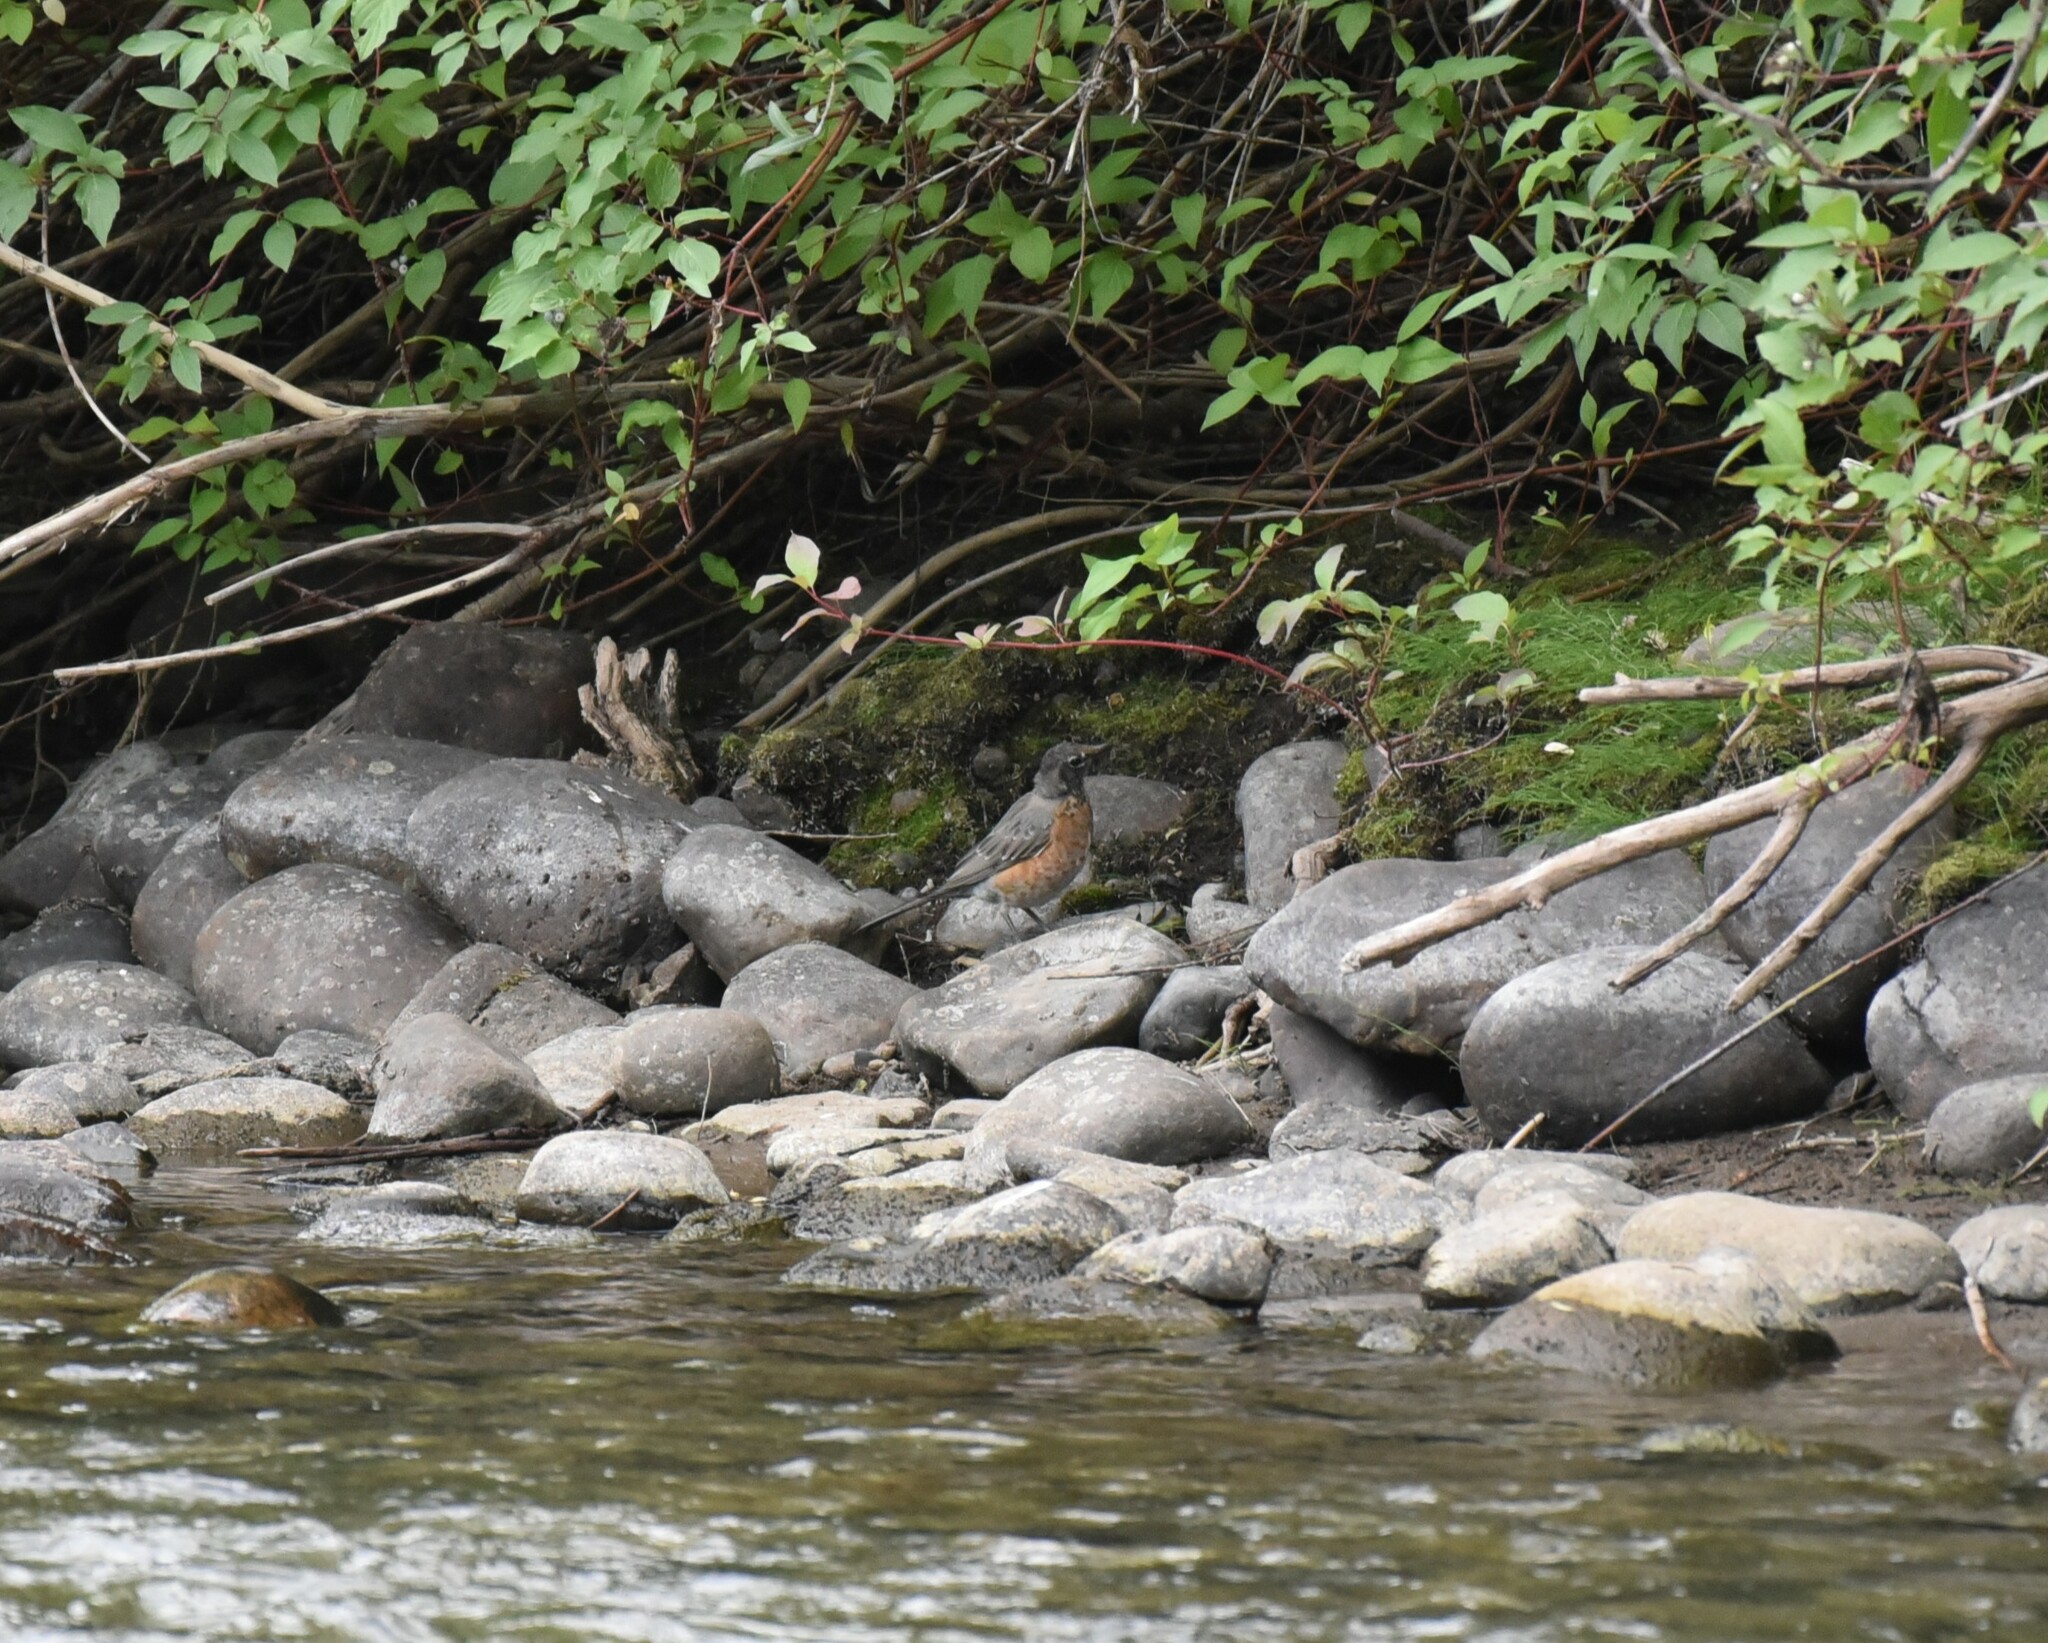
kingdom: Animalia
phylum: Chordata
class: Aves
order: Passeriformes
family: Turdidae
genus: Turdus
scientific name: Turdus migratorius
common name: American robin
